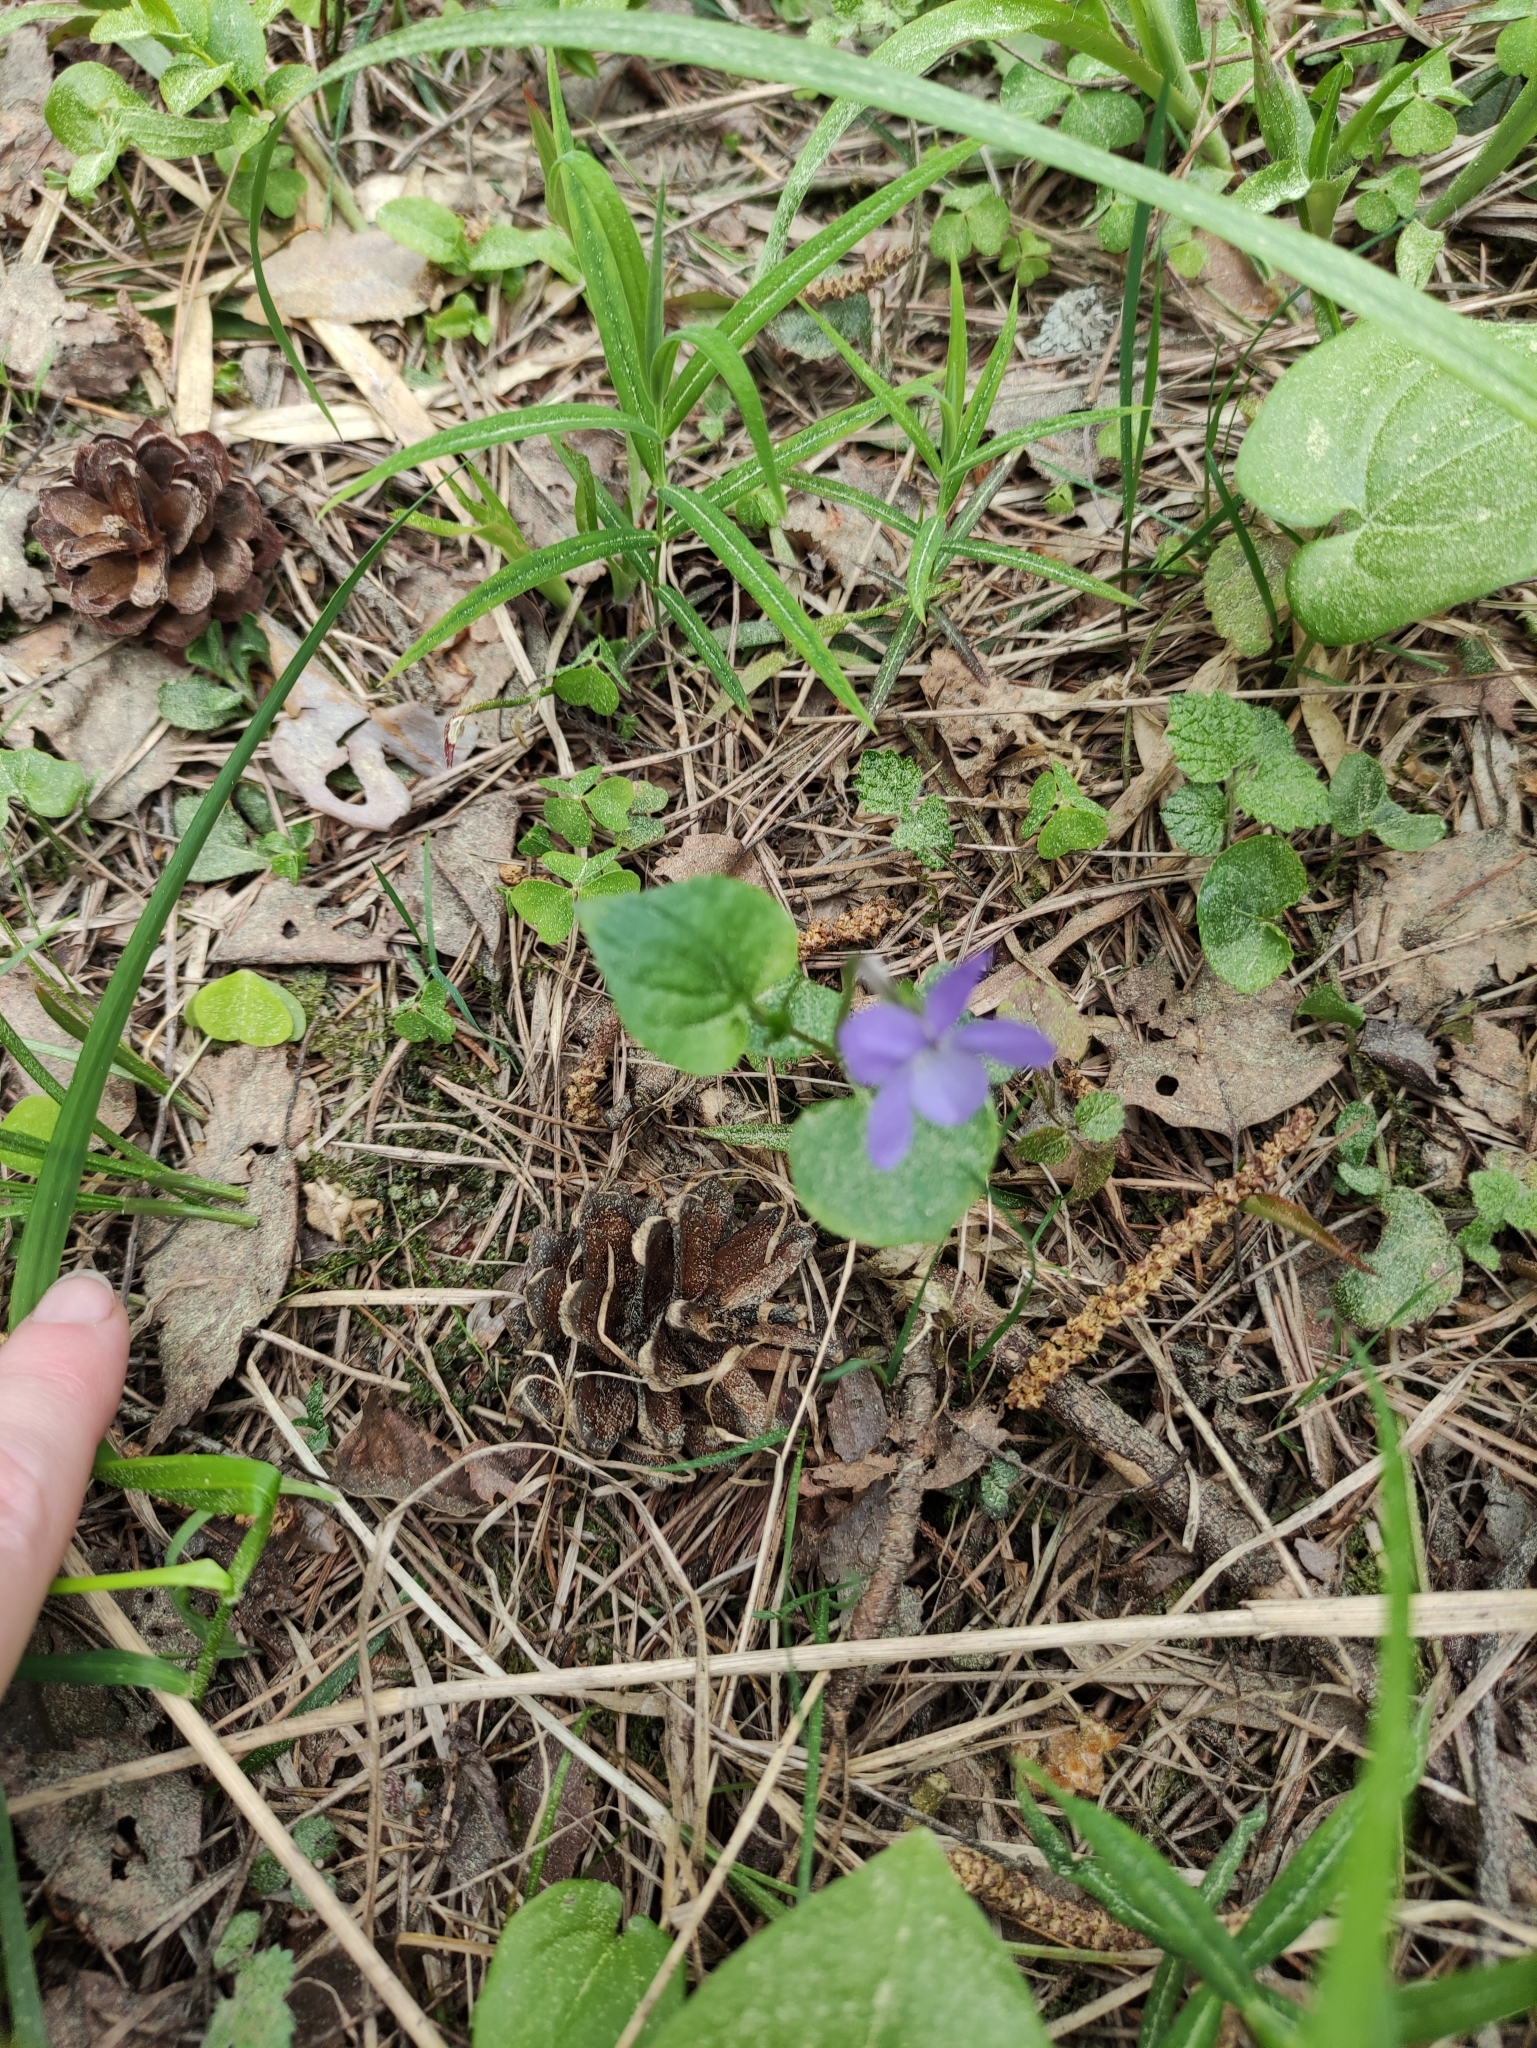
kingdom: Plantae
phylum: Tracheophyta
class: Magnoliopsida
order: Malpighiales
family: Violaceae
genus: Viola
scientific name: Viola riviniana
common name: Common dog-violet
